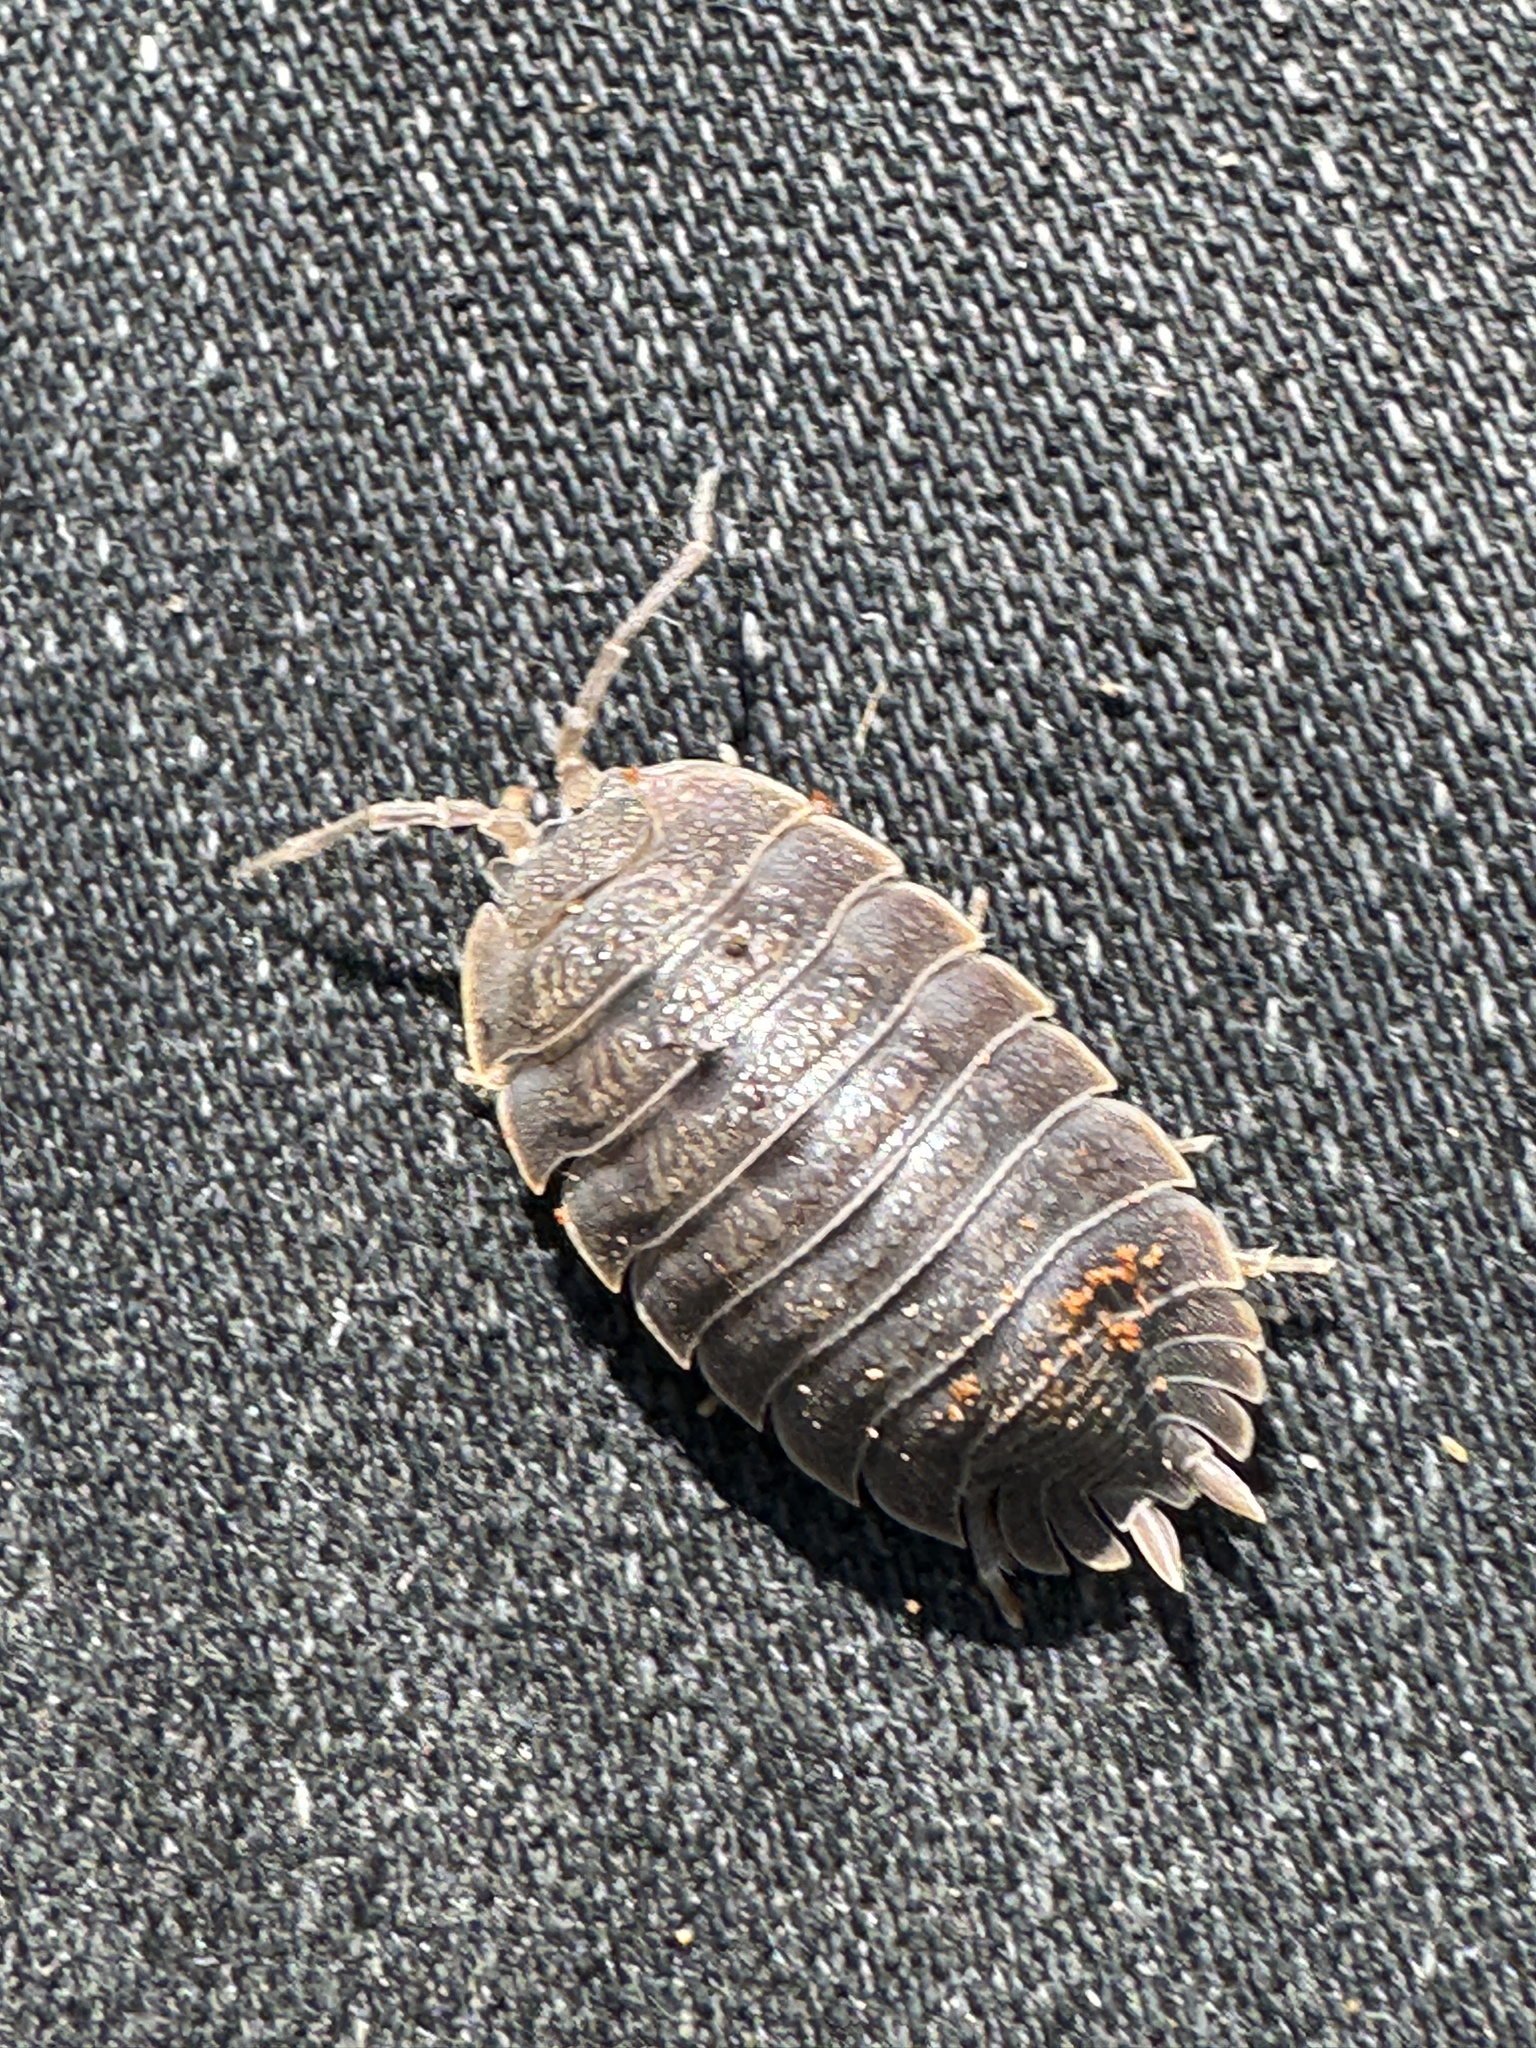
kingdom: Animalia
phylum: Arthropoda
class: Malacostraca
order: Isopoda
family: Porcellionidae
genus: Porcellio
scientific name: Porcellio dilatatus
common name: Isopod
